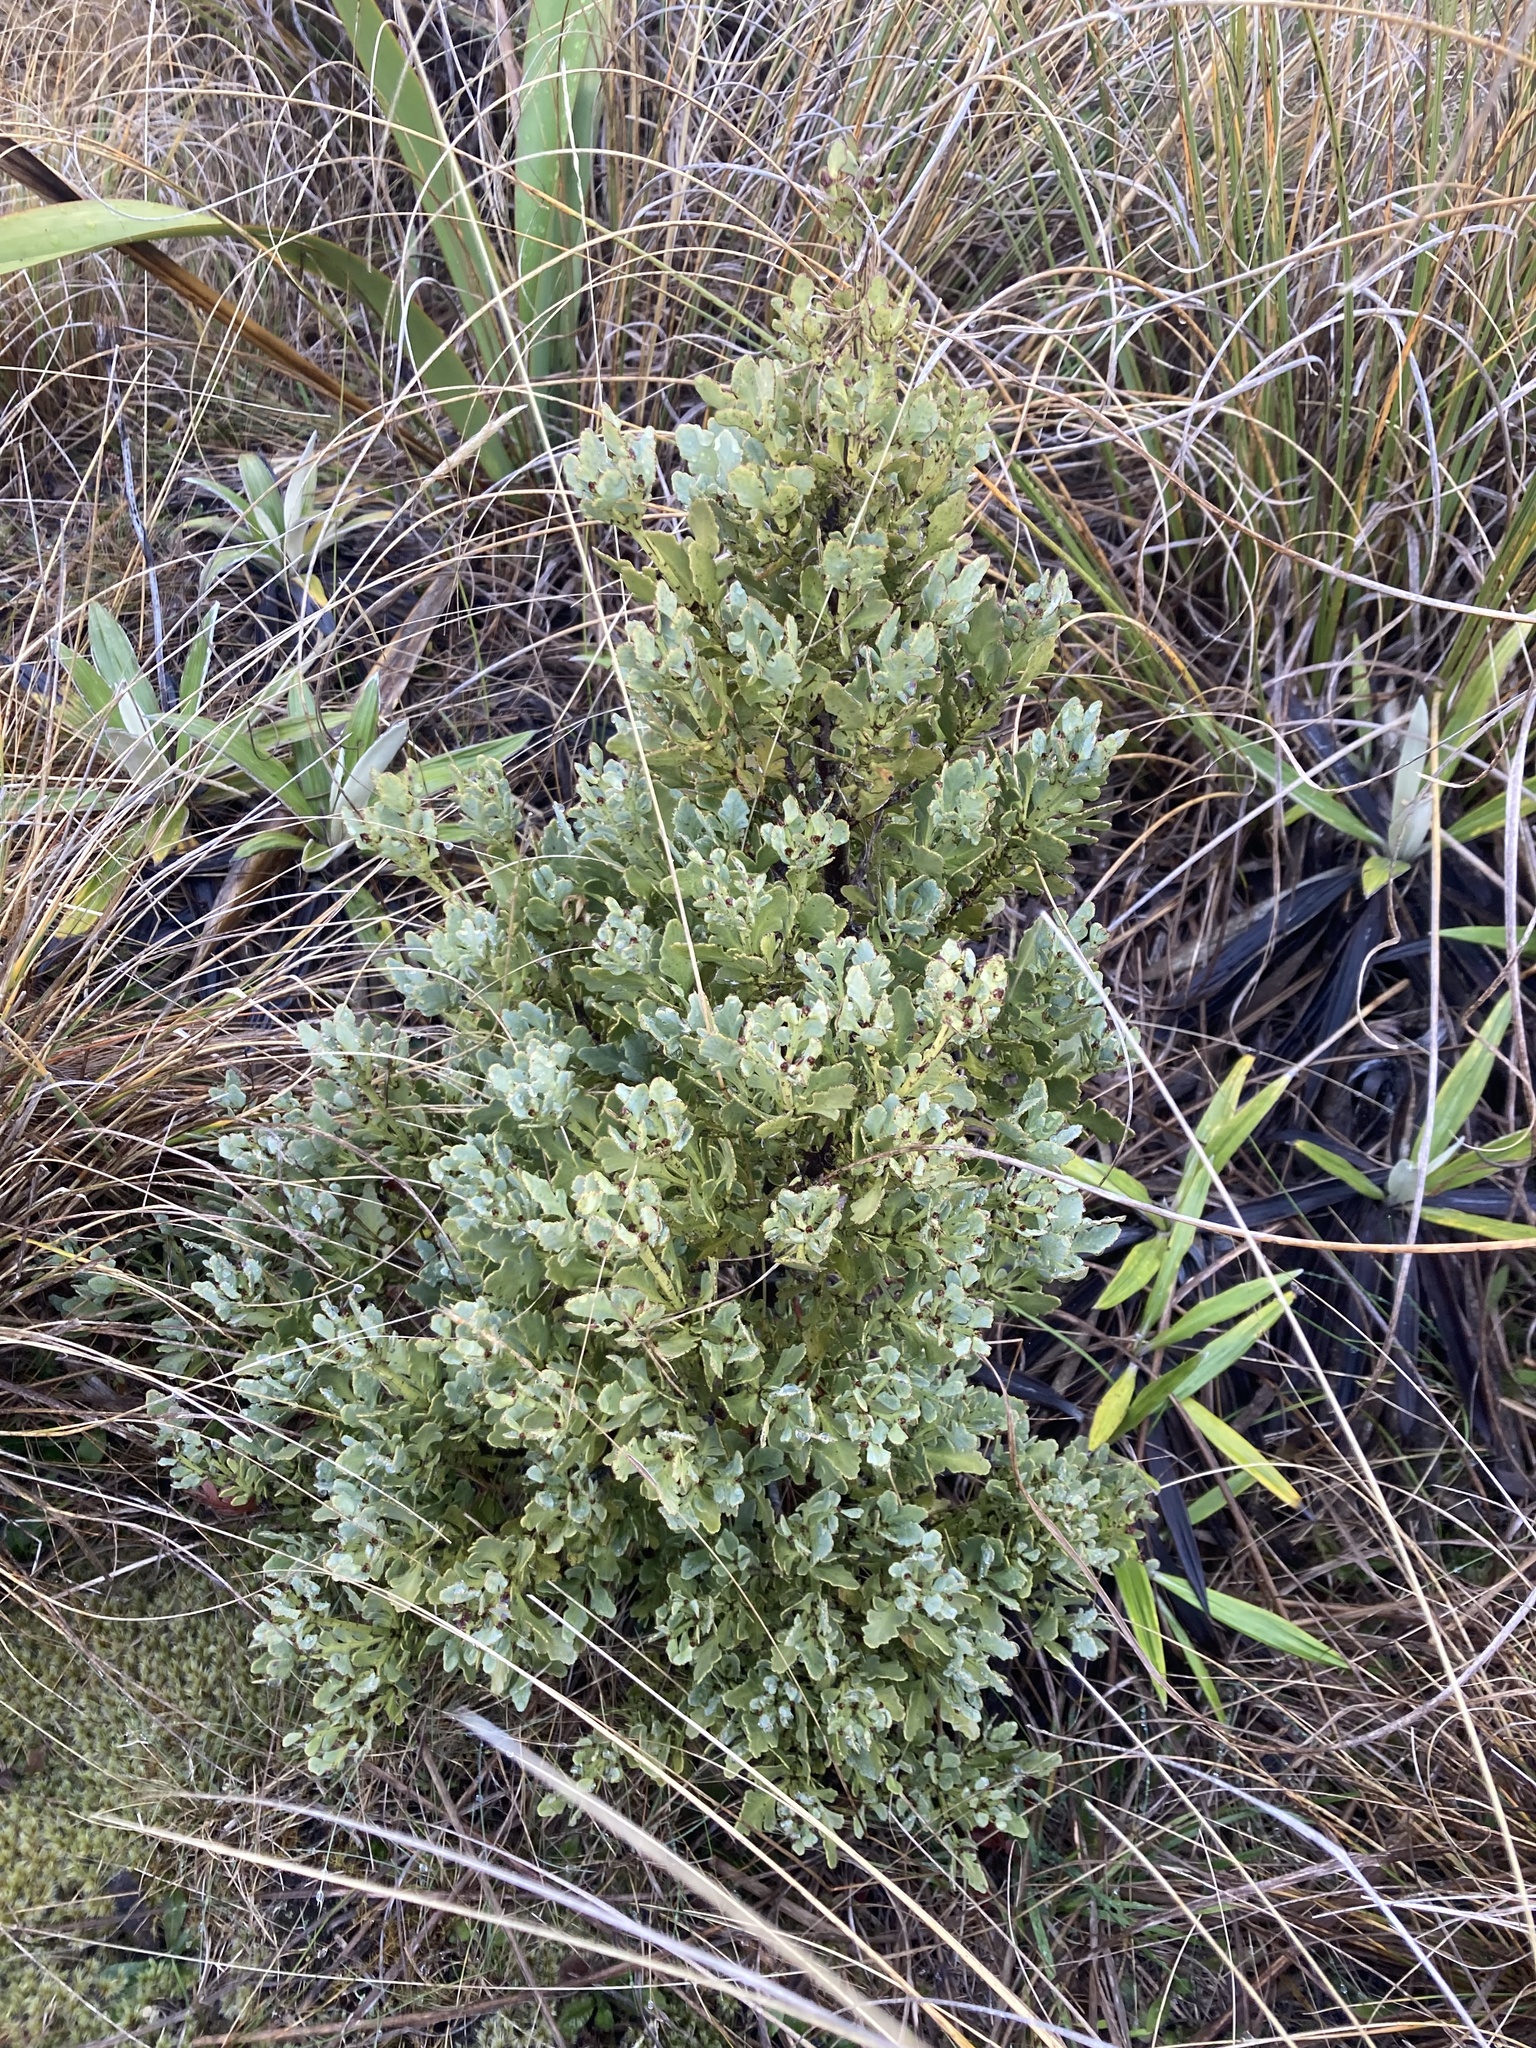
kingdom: Plantae
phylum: Tracheophyta
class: Pinopsida
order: Pinales
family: Phyllocladaceae
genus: Phyllocladus
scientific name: Phyllocladus trichomanoides
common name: Celery pine
